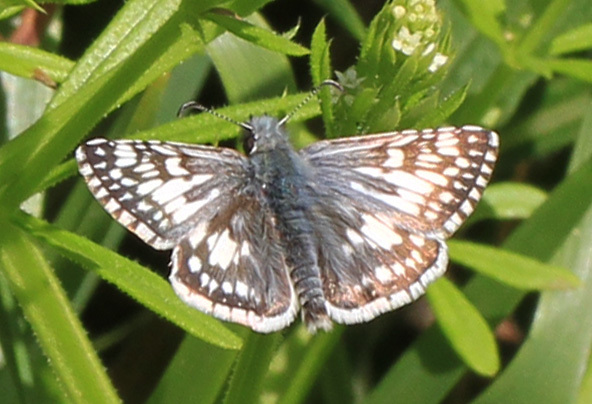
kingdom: Animalia
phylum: Arthropoda
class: Insecta
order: Lepidoptera
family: Hesperiidae
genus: Burnsius
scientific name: Burnsius communis
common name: Common checkered-skipper
